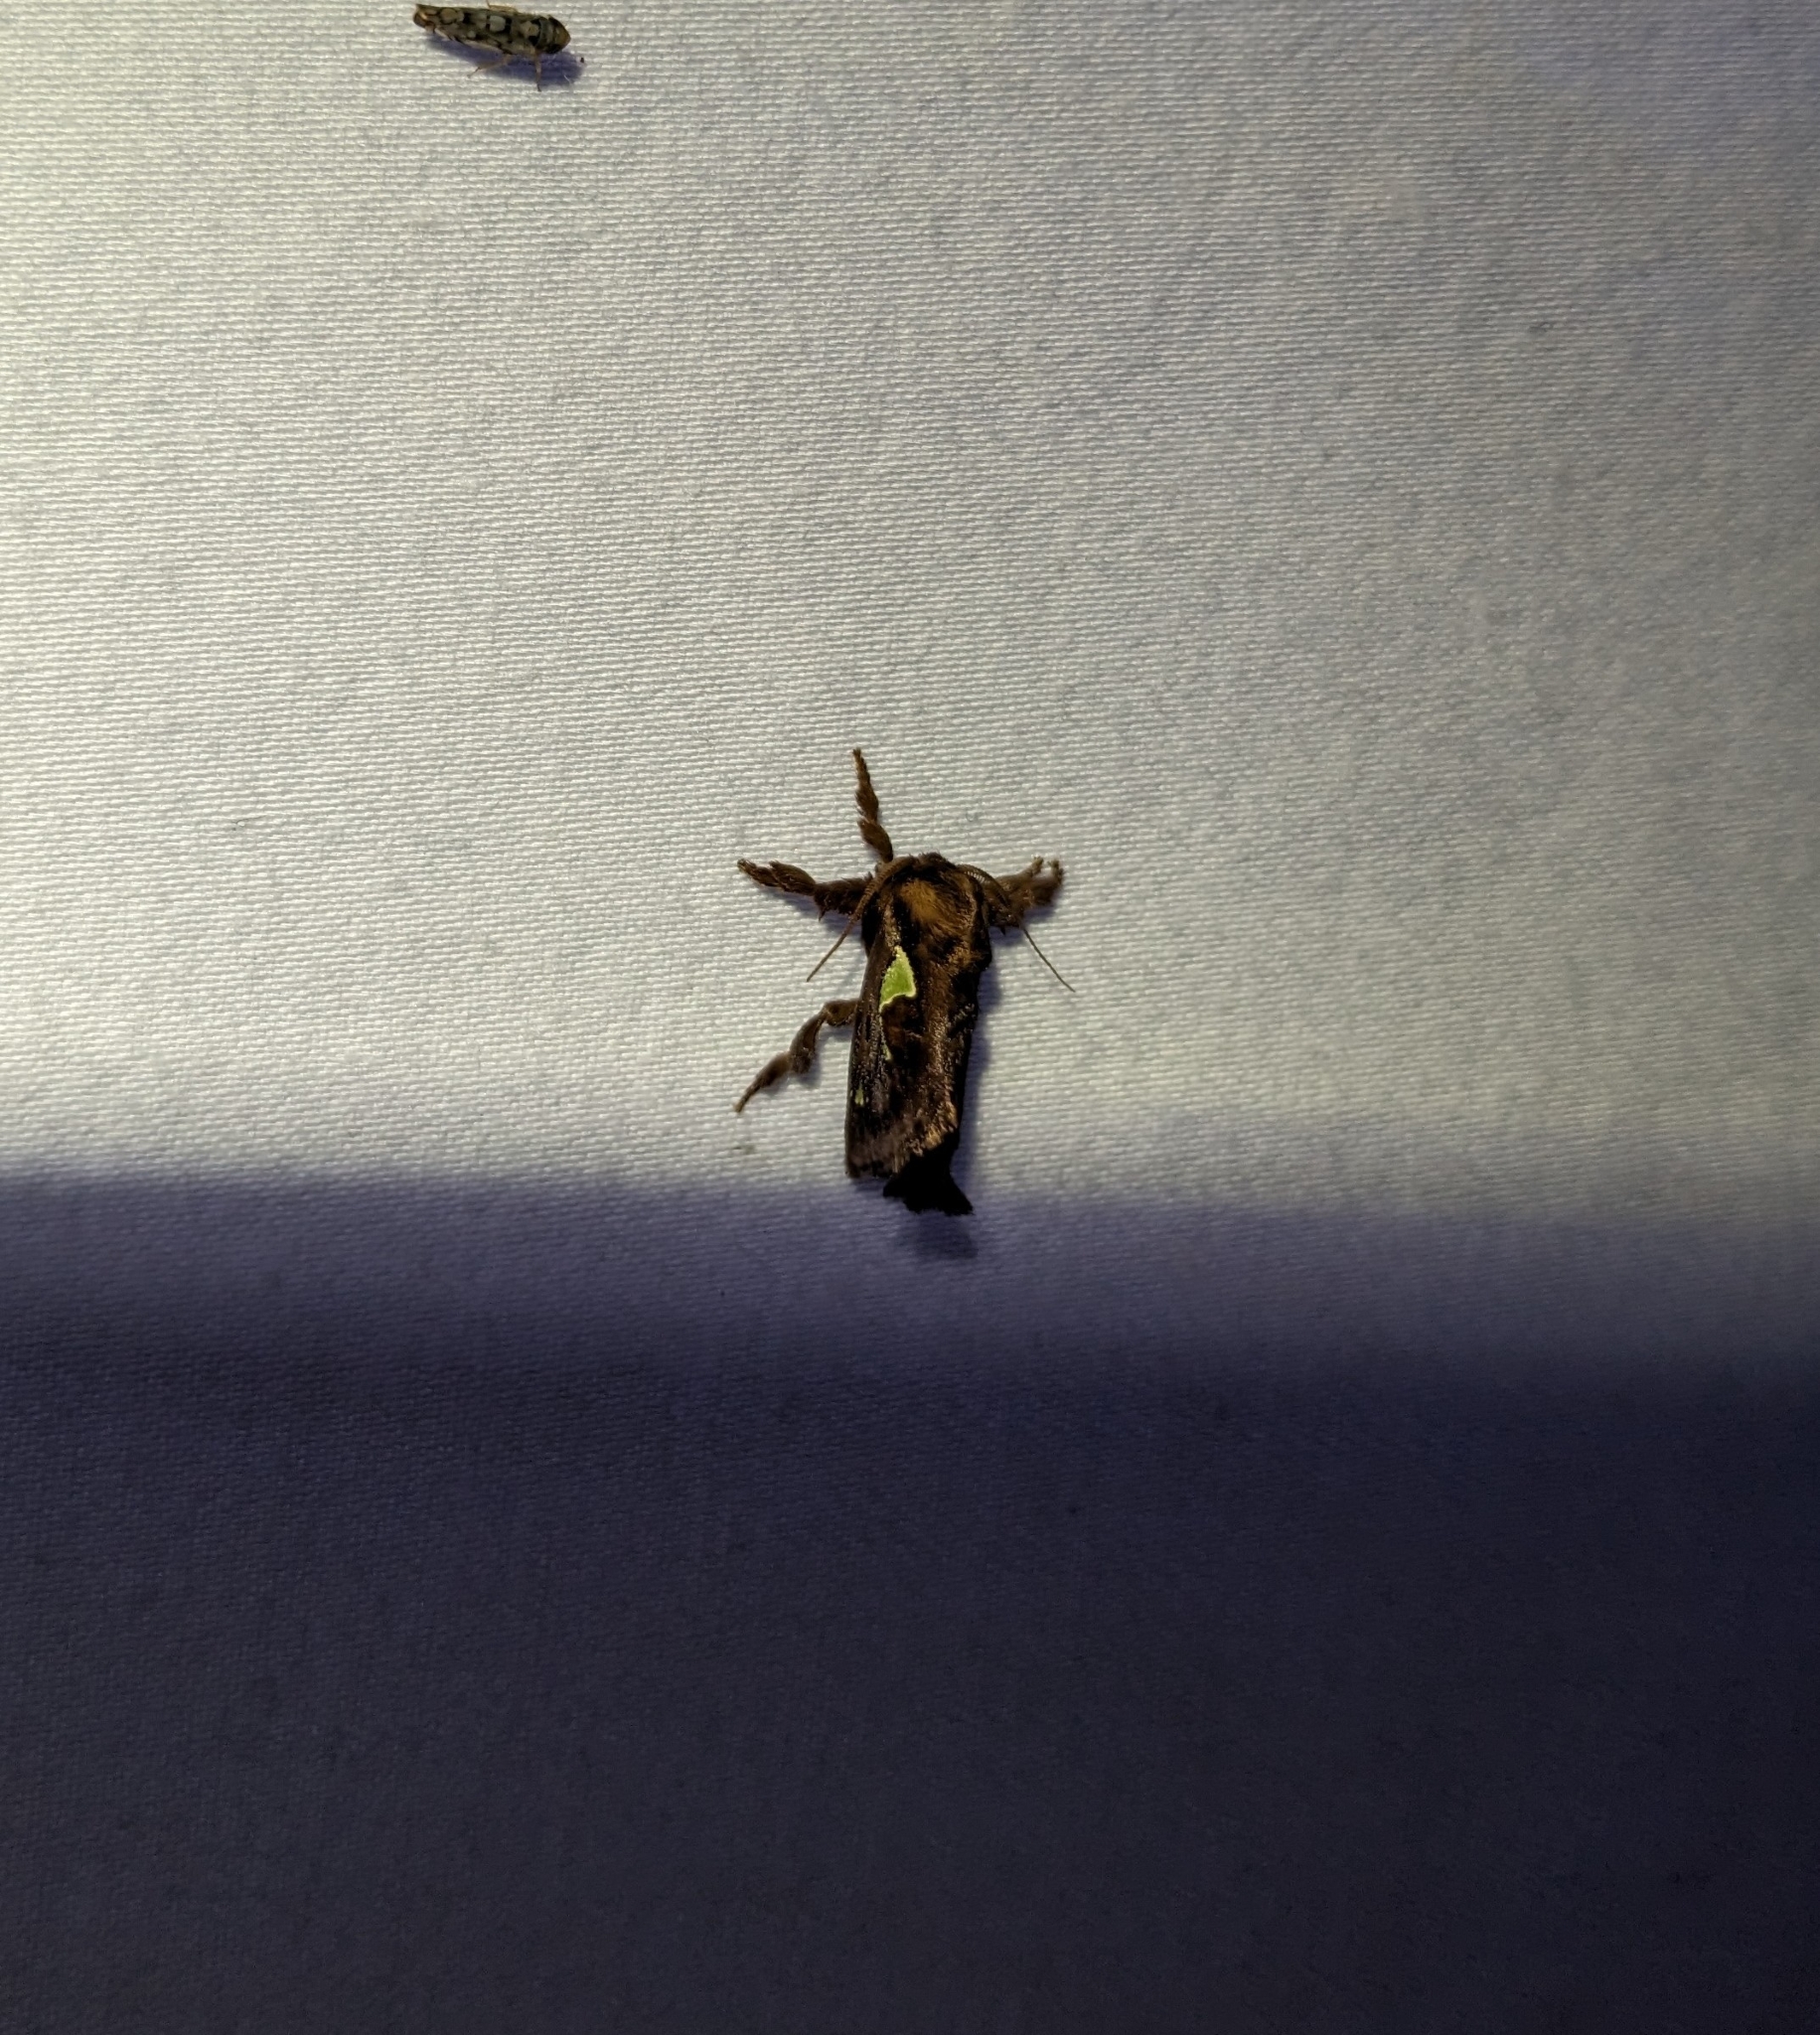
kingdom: Animalia
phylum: Arthropoda
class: Insecta
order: Lepidoptera
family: Limacodidae
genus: Euclea
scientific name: Euclea delphinii
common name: Spiny oak-slug moth
